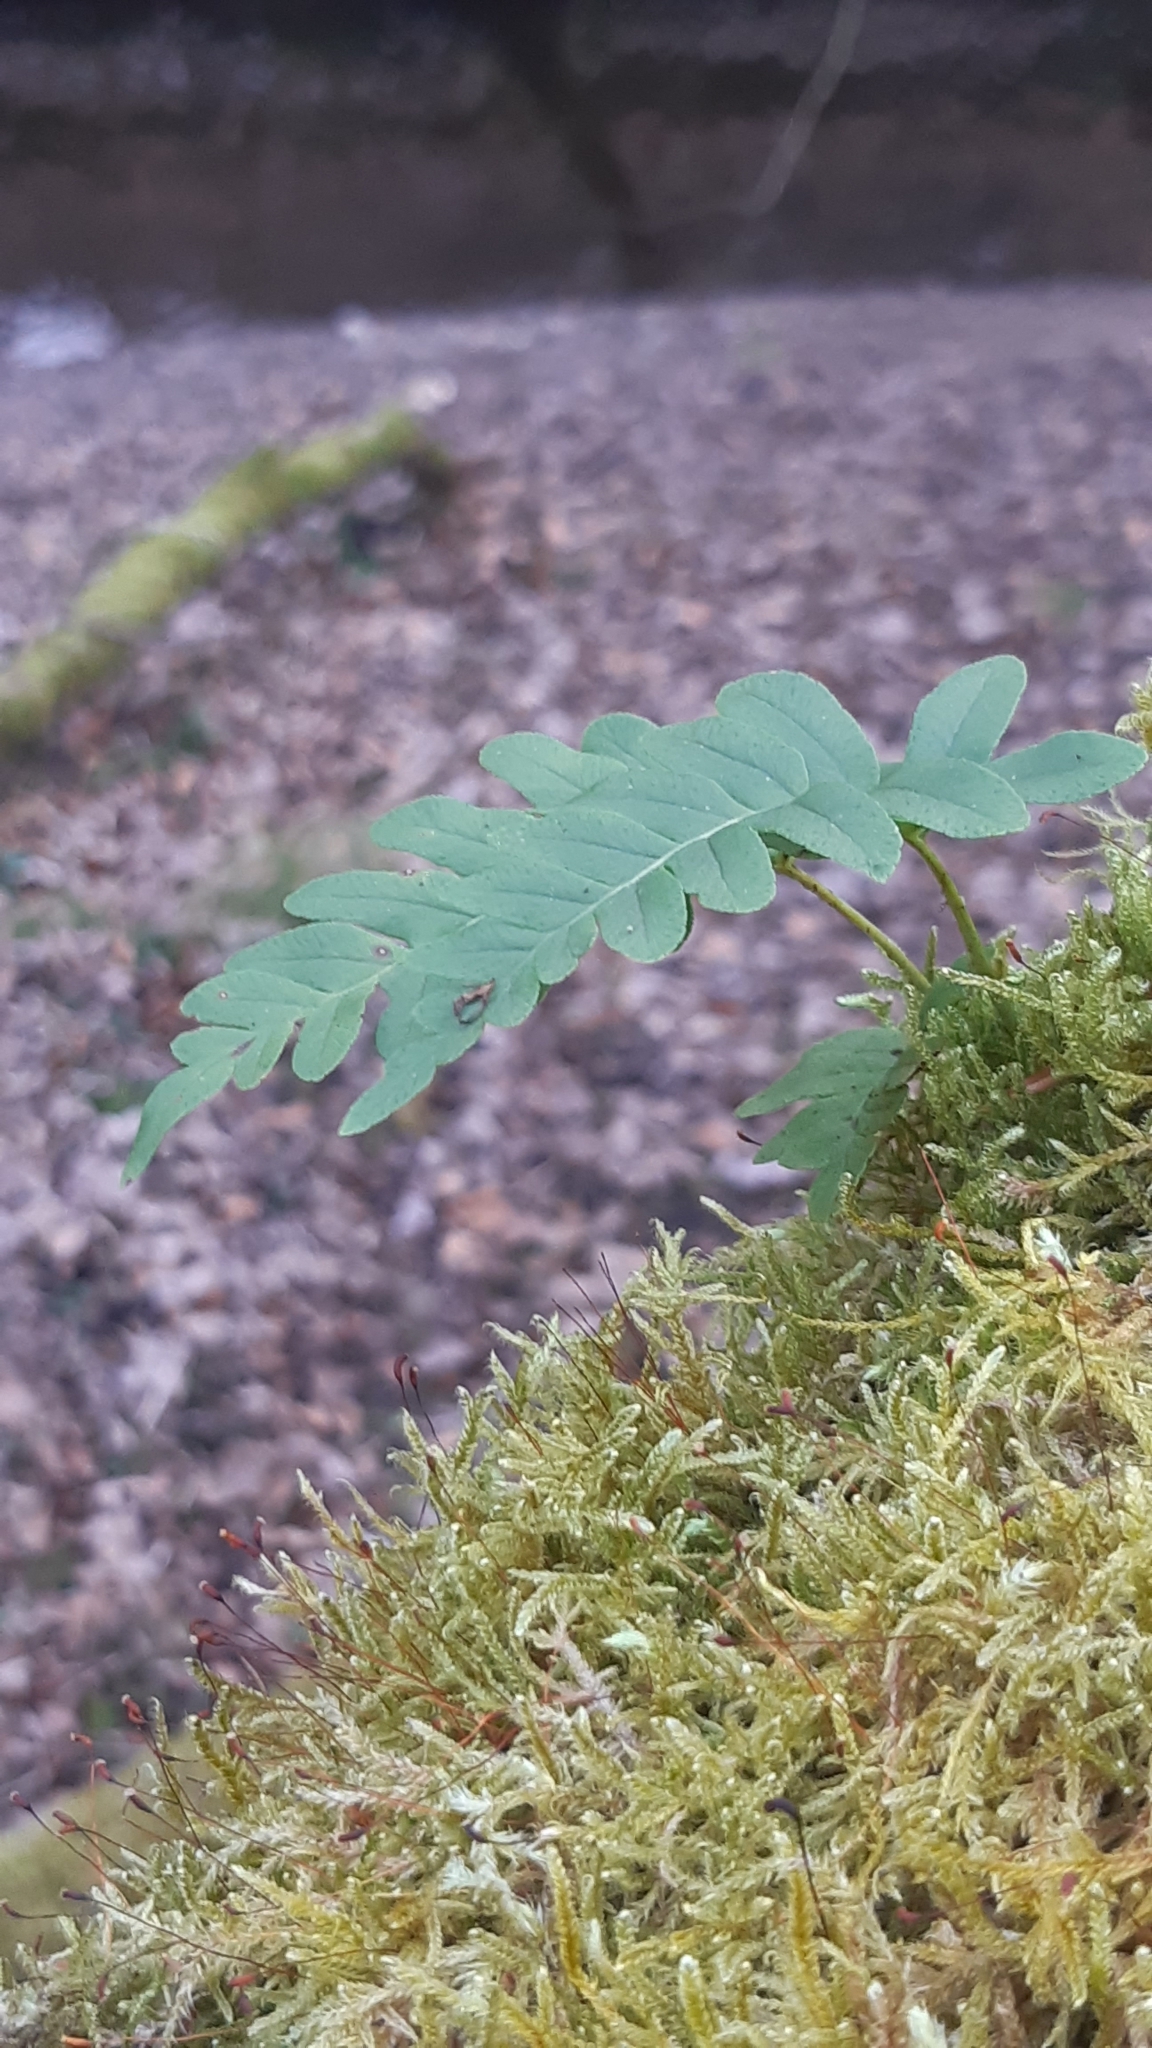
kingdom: Plantae
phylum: Tracheophyta
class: Polypodiopsida
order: Polypodiales
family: Polypodiaceae
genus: Polypodium
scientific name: Polypodium vulgare
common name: Common polypody
